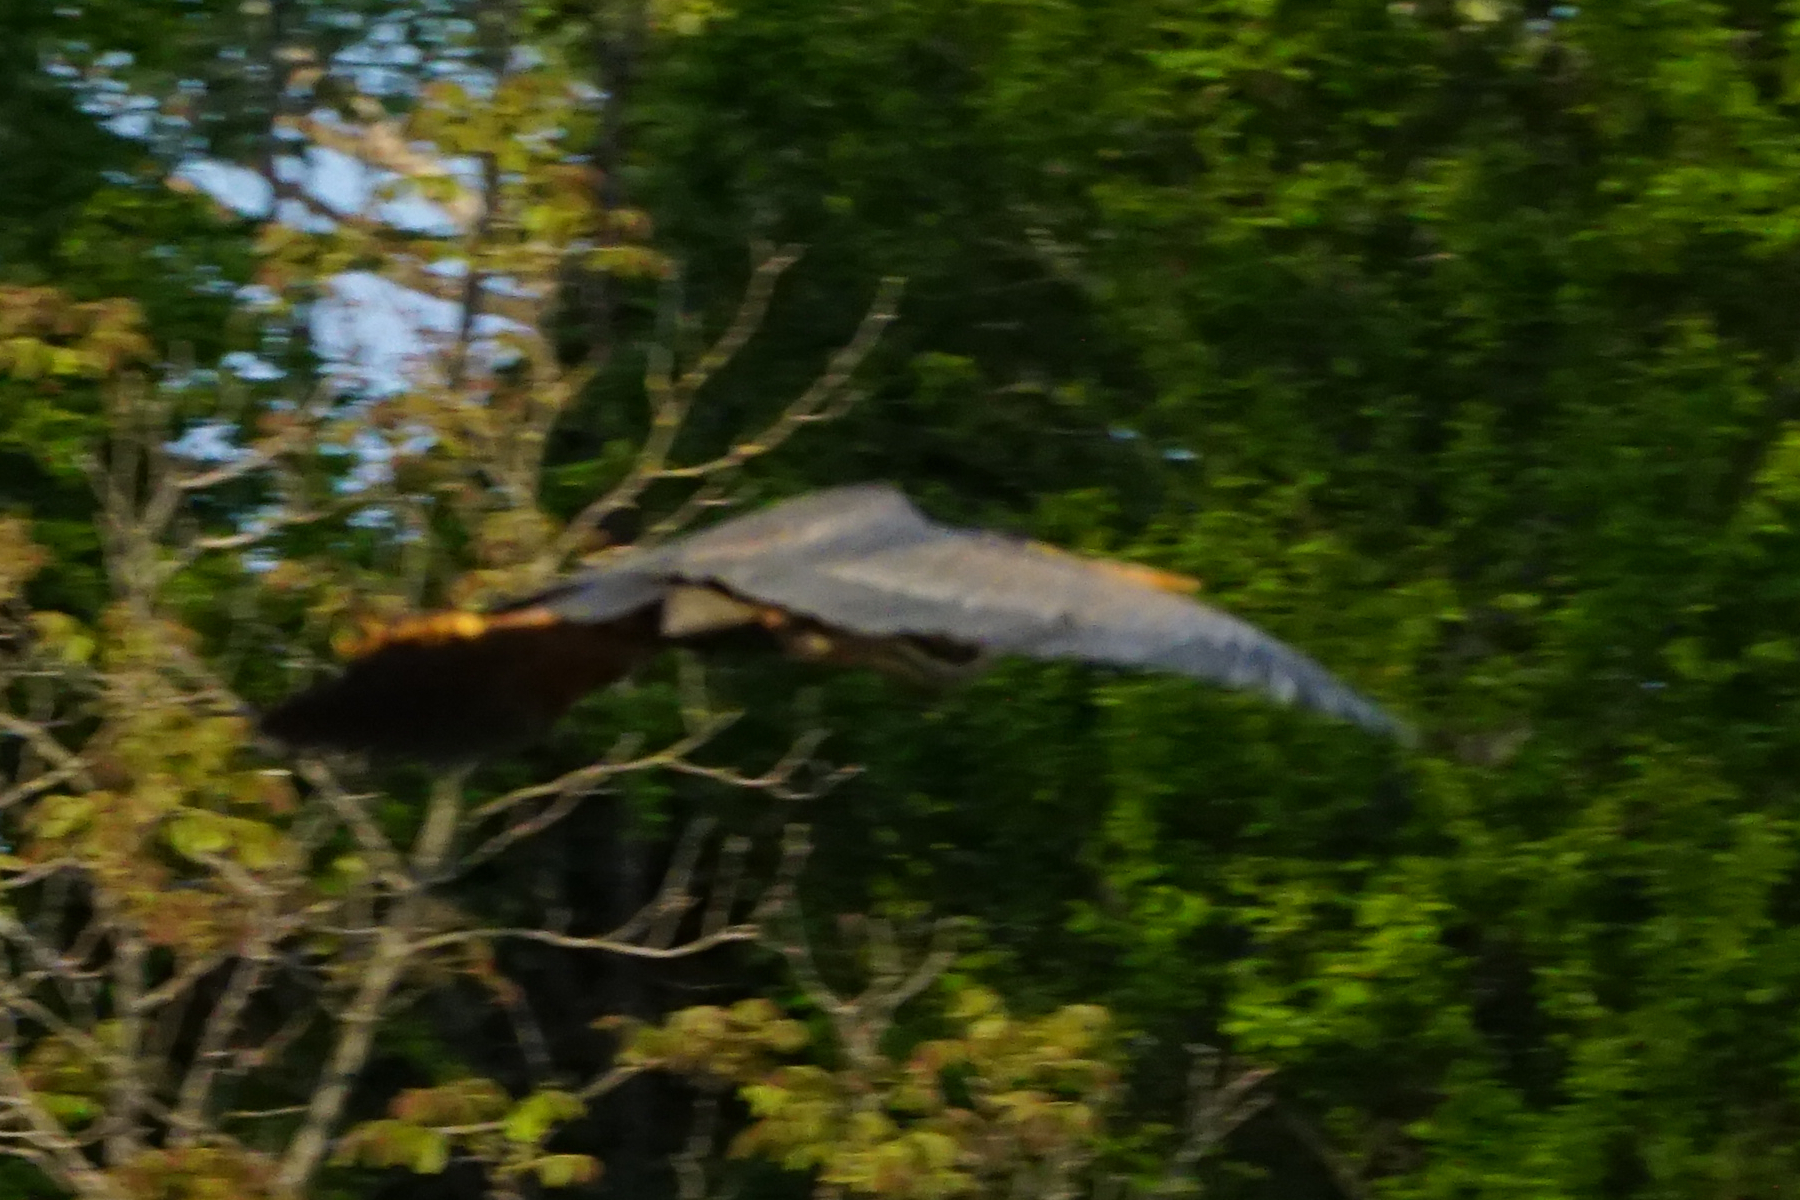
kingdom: Animalia
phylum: Chordata
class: Aves
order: Pelecaniformes
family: Ardeidae
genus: Ardea
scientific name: Ardea purpurea
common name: Purple heron
